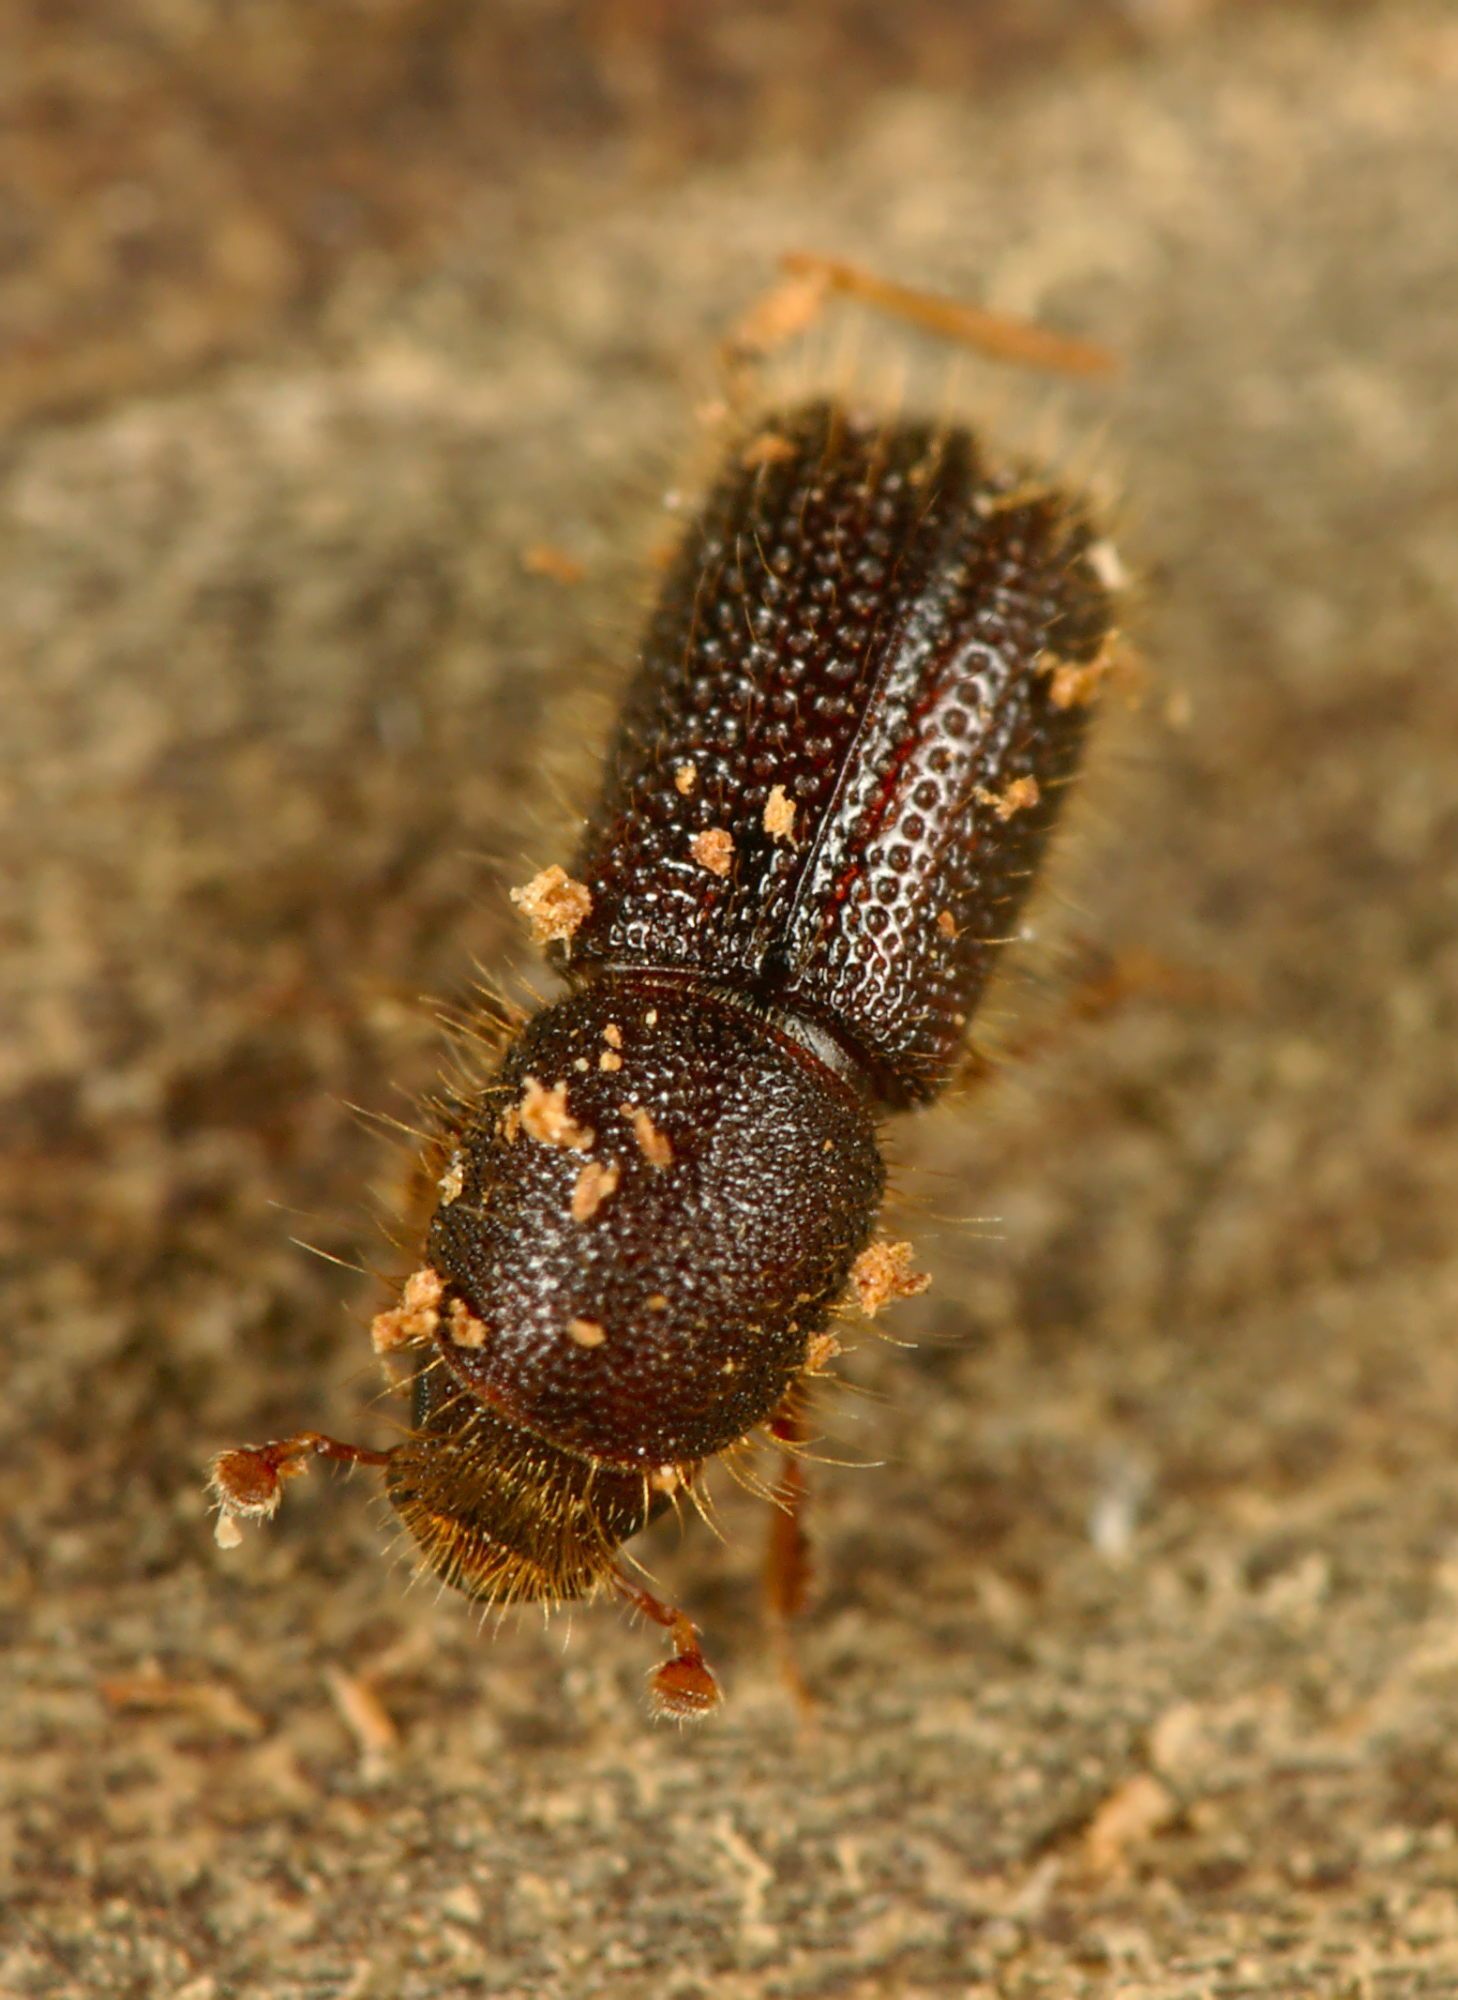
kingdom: Animalia
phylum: Arthropoda
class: Insecta
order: Coleoptera
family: Curculionidae
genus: Dryocoetes
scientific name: Dryocoetes villosus
